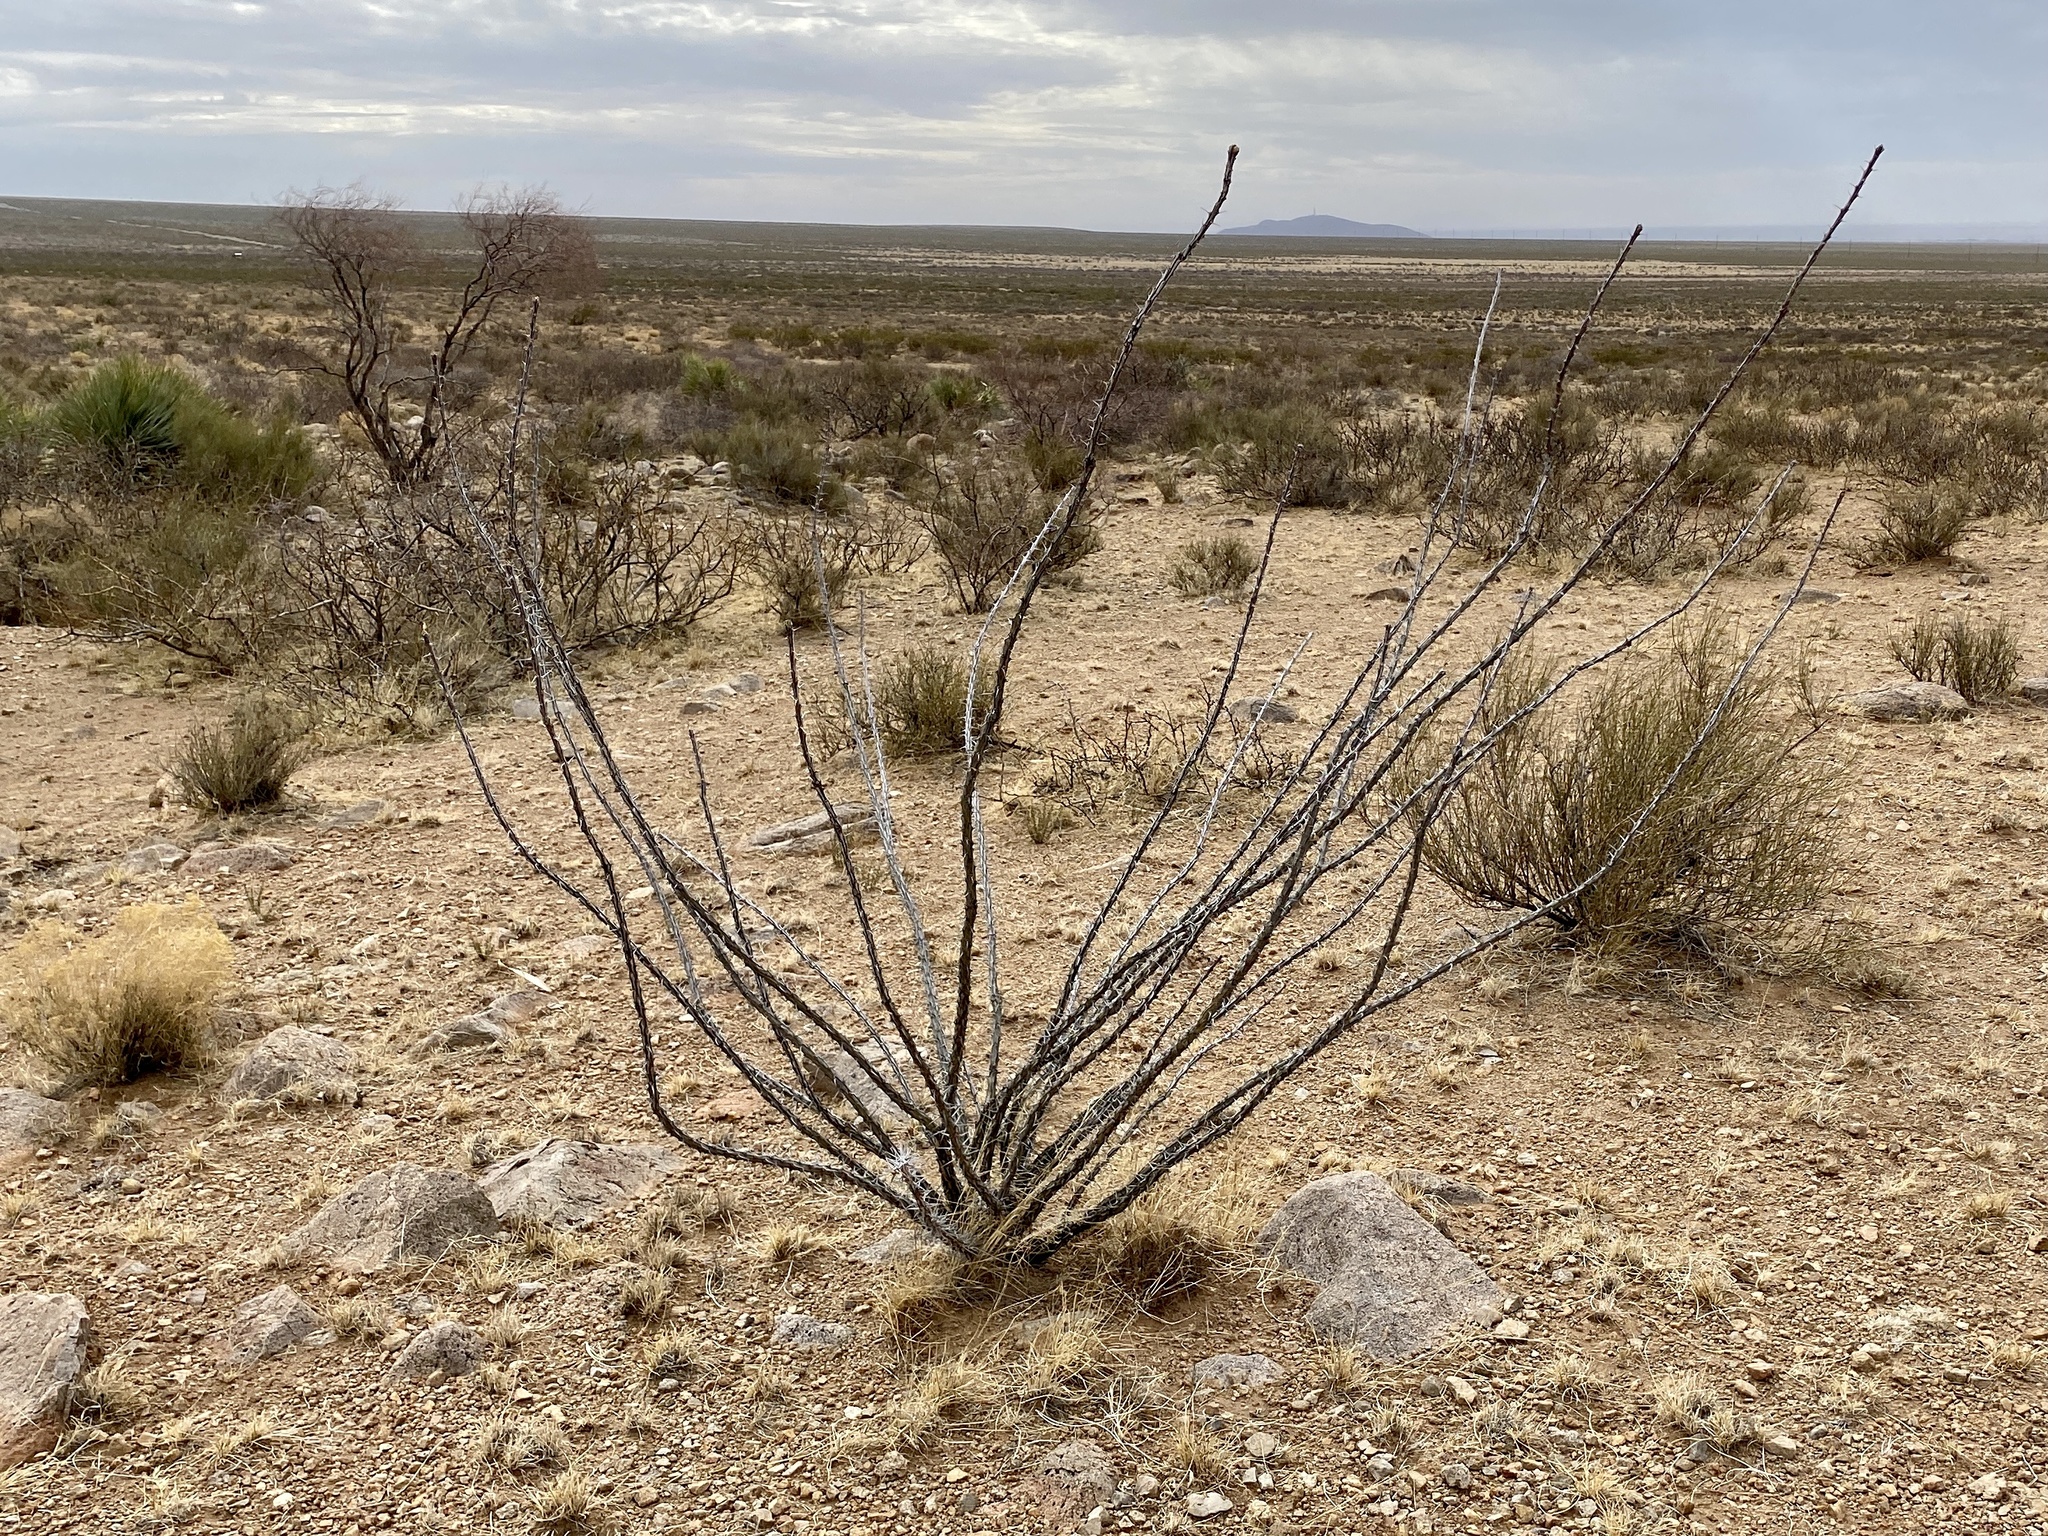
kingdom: Plantae
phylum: Tracheophyta
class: Magnoliopsida
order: Ericales
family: Fouquieriaceae
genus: Fouquieria
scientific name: Fouquieria splendens
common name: Vine-cactus
